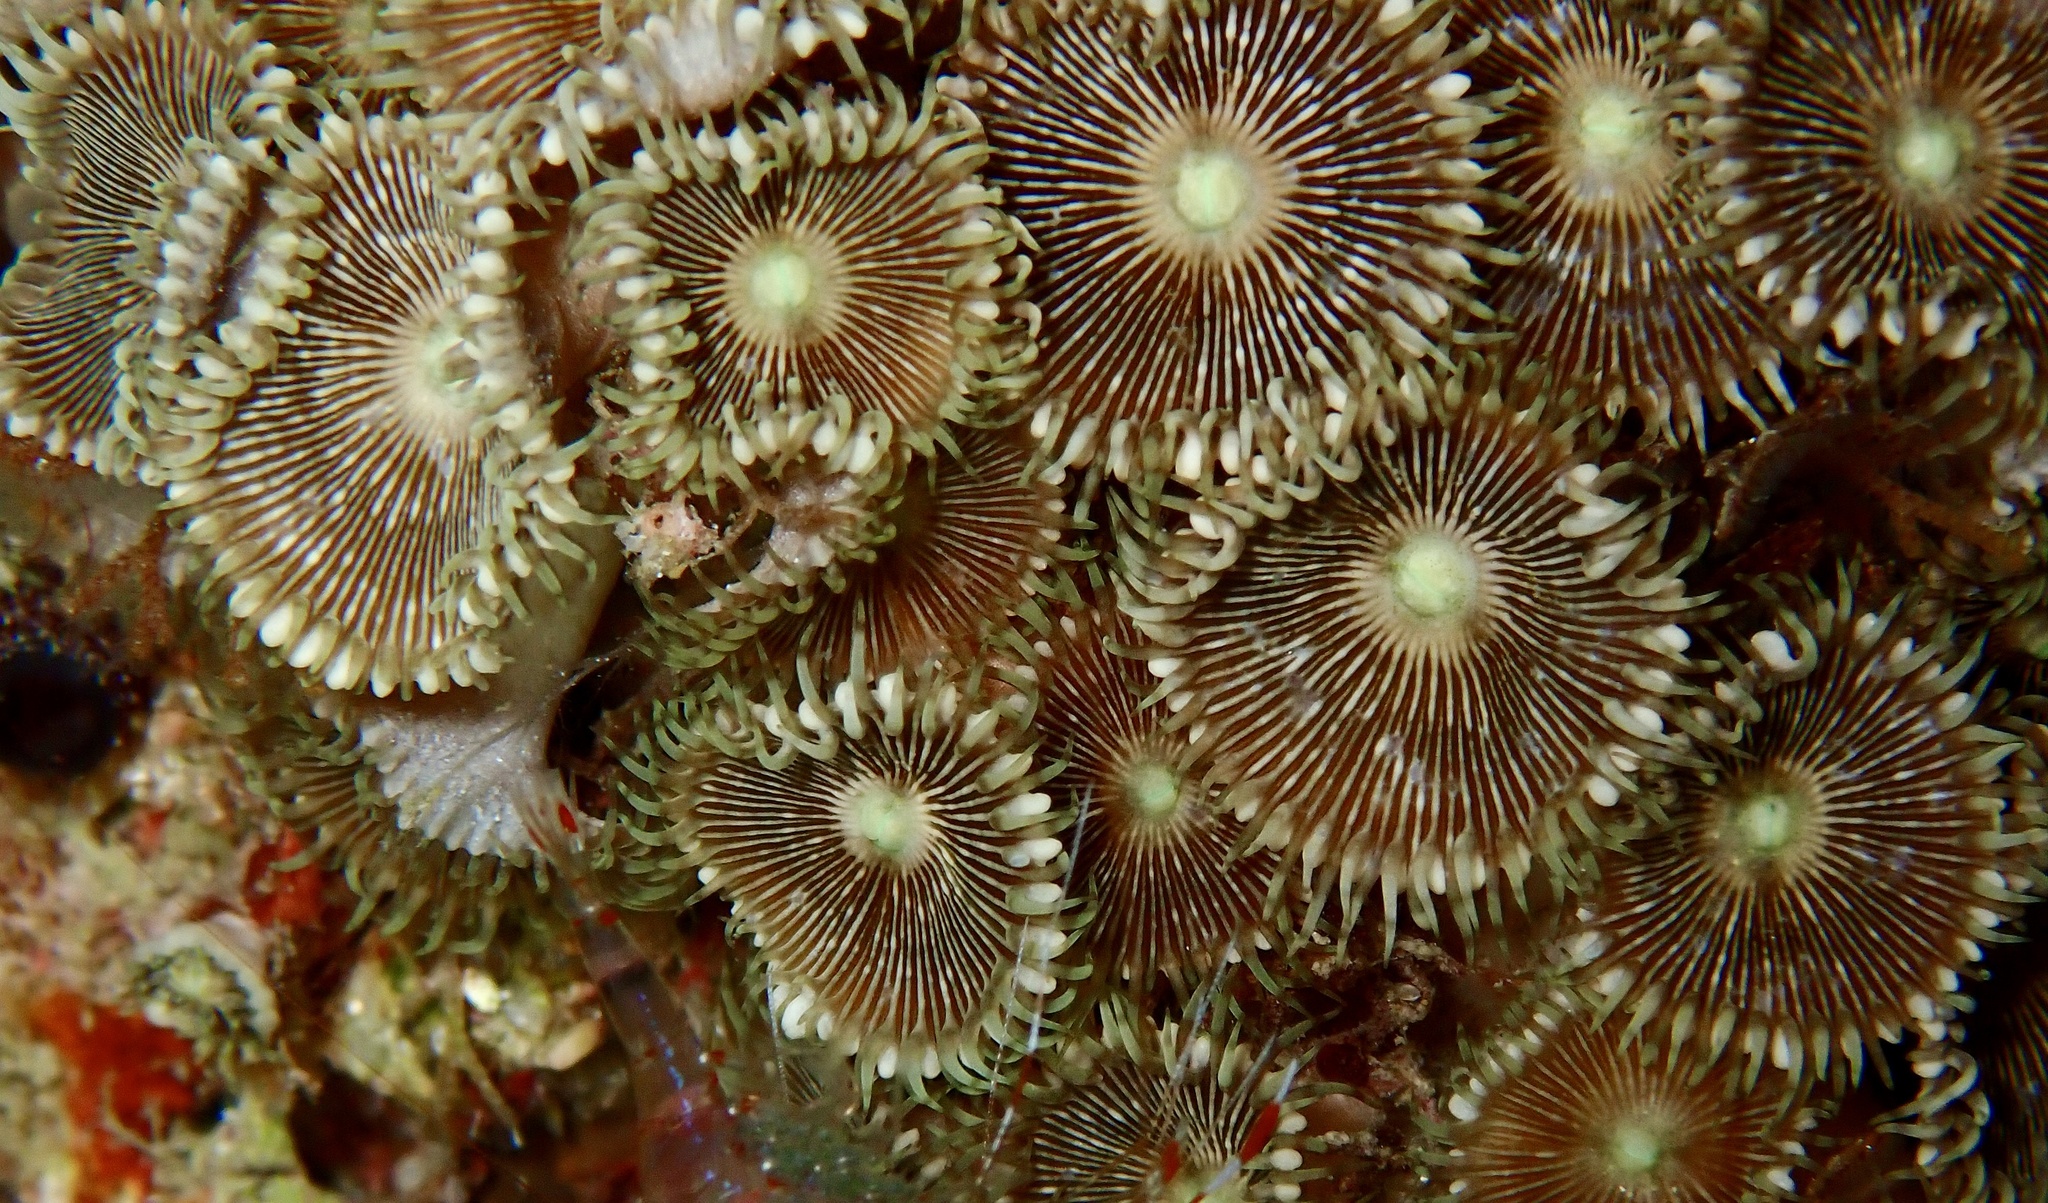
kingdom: Animalia
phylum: Cnidaria
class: Anthozoa
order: Zoantharia
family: Sphenopidae
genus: Palythoa
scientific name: Palythoa heliodiscus
